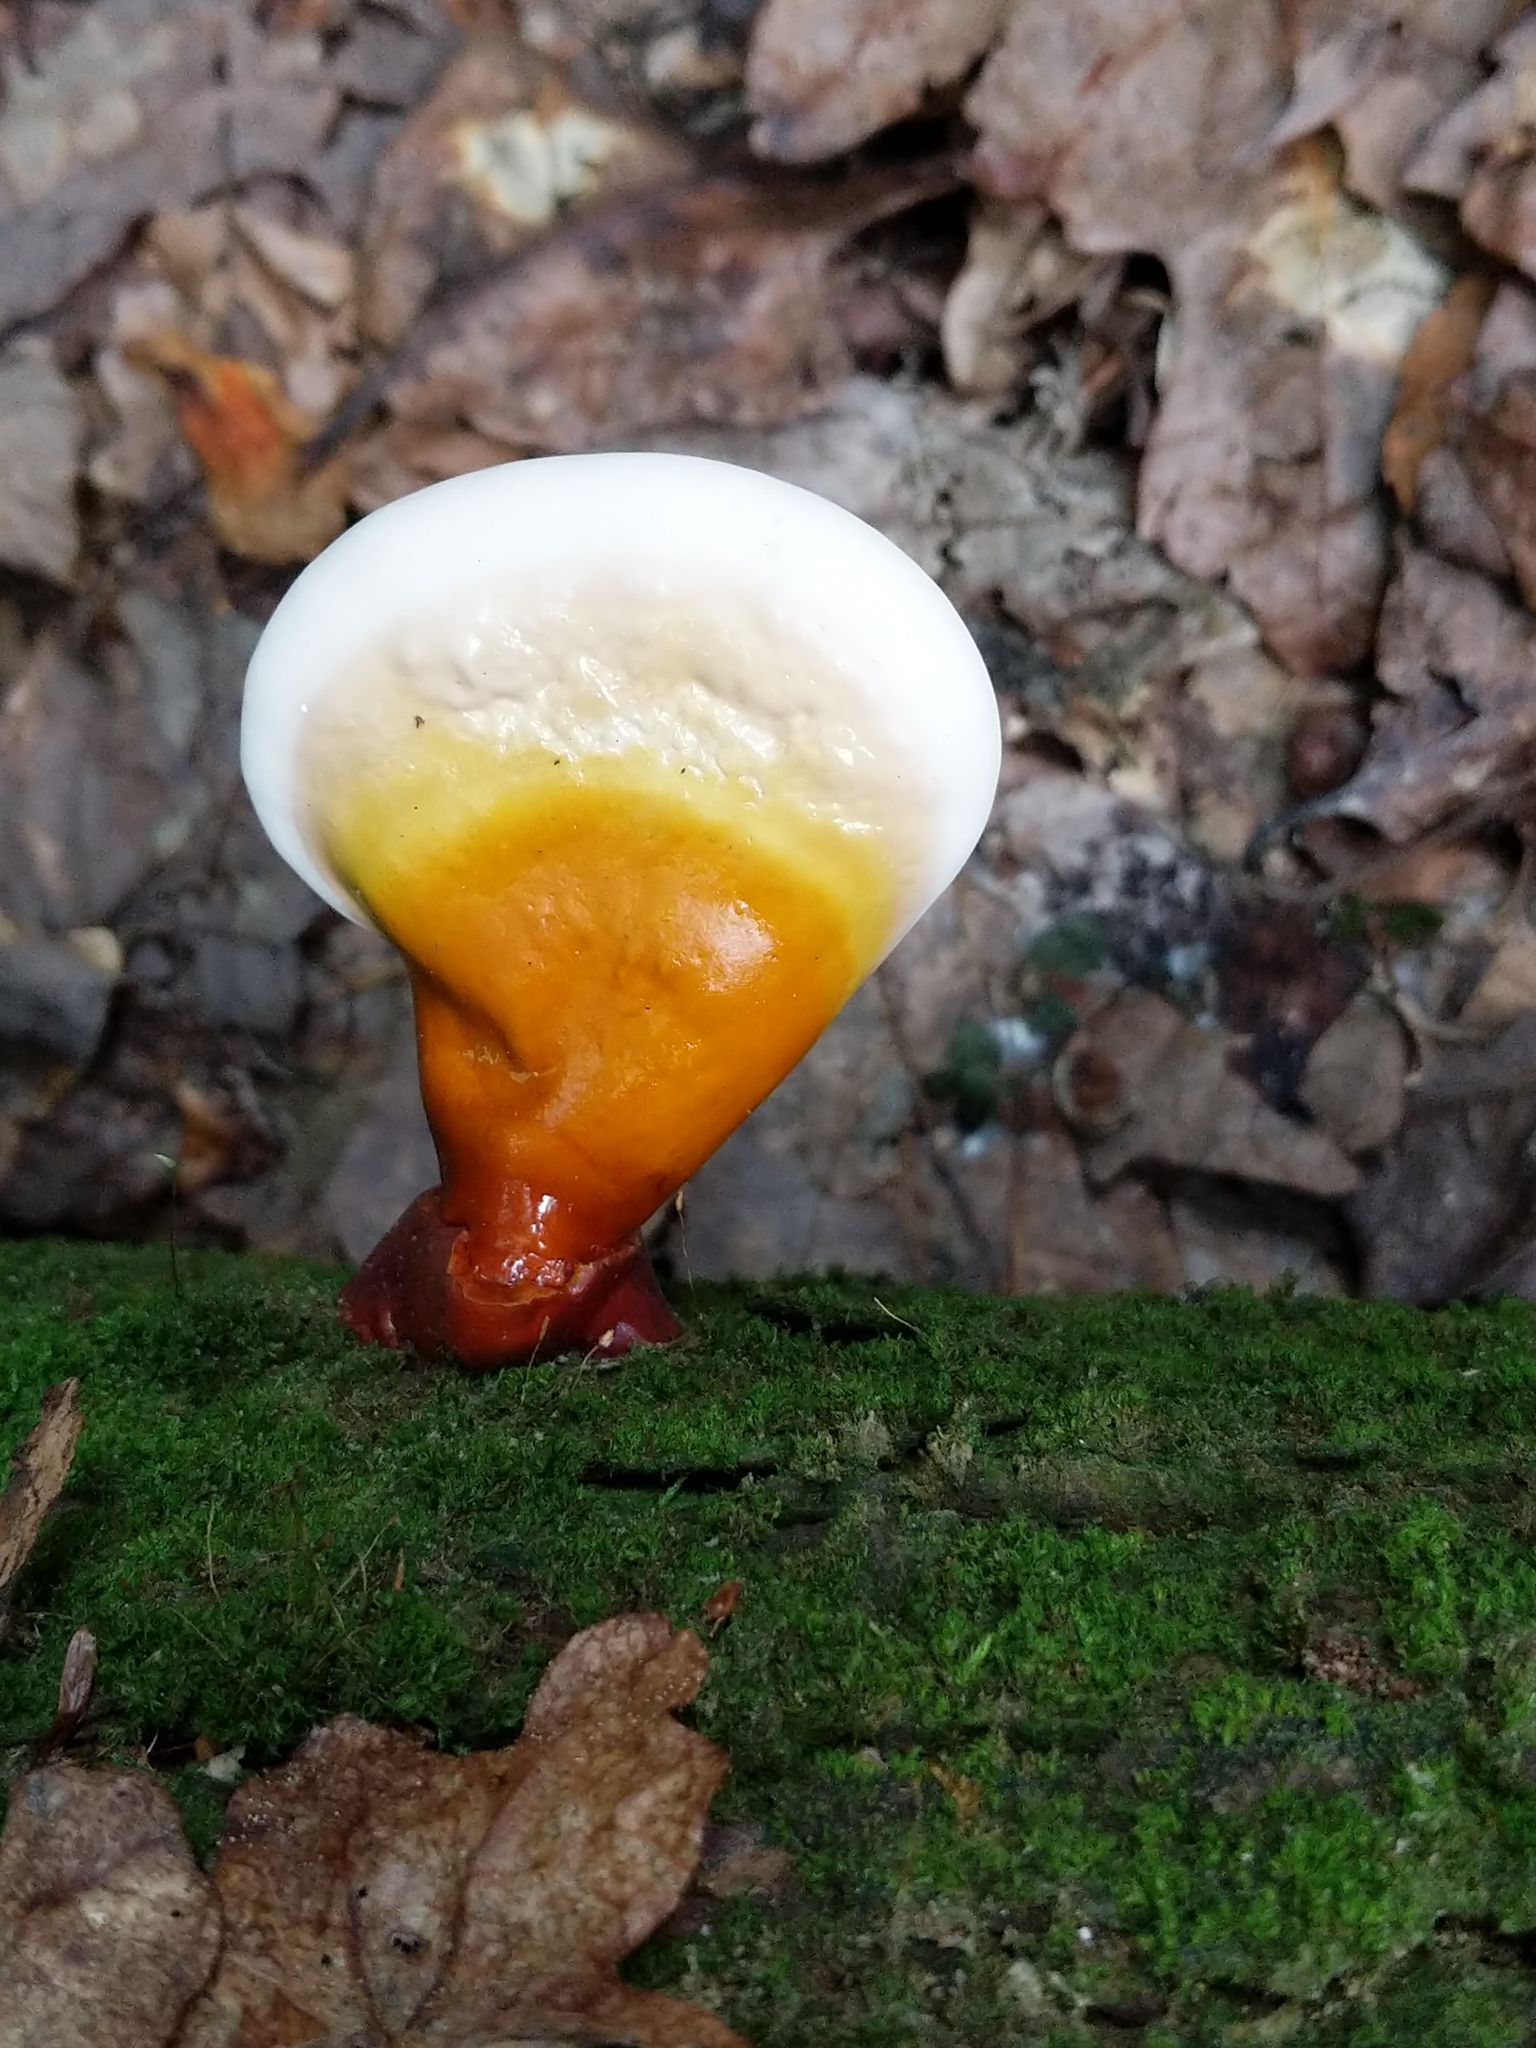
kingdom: Fungi
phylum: Basidiomycota
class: Agaricomycetes
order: Polyporales
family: Polyporaceae
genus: Ganoderma
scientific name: Ganoderma tsugae
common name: Hemlock varnish shelf
